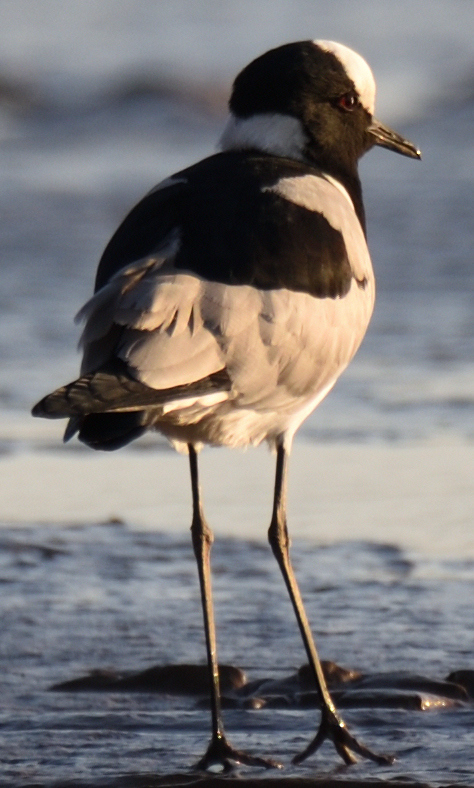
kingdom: Animalia
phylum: Chordata
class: Aves
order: Charadriiformes
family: Charadriidae
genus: Vanellus
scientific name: Vanellus armatus
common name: Blacksmith lapwing
